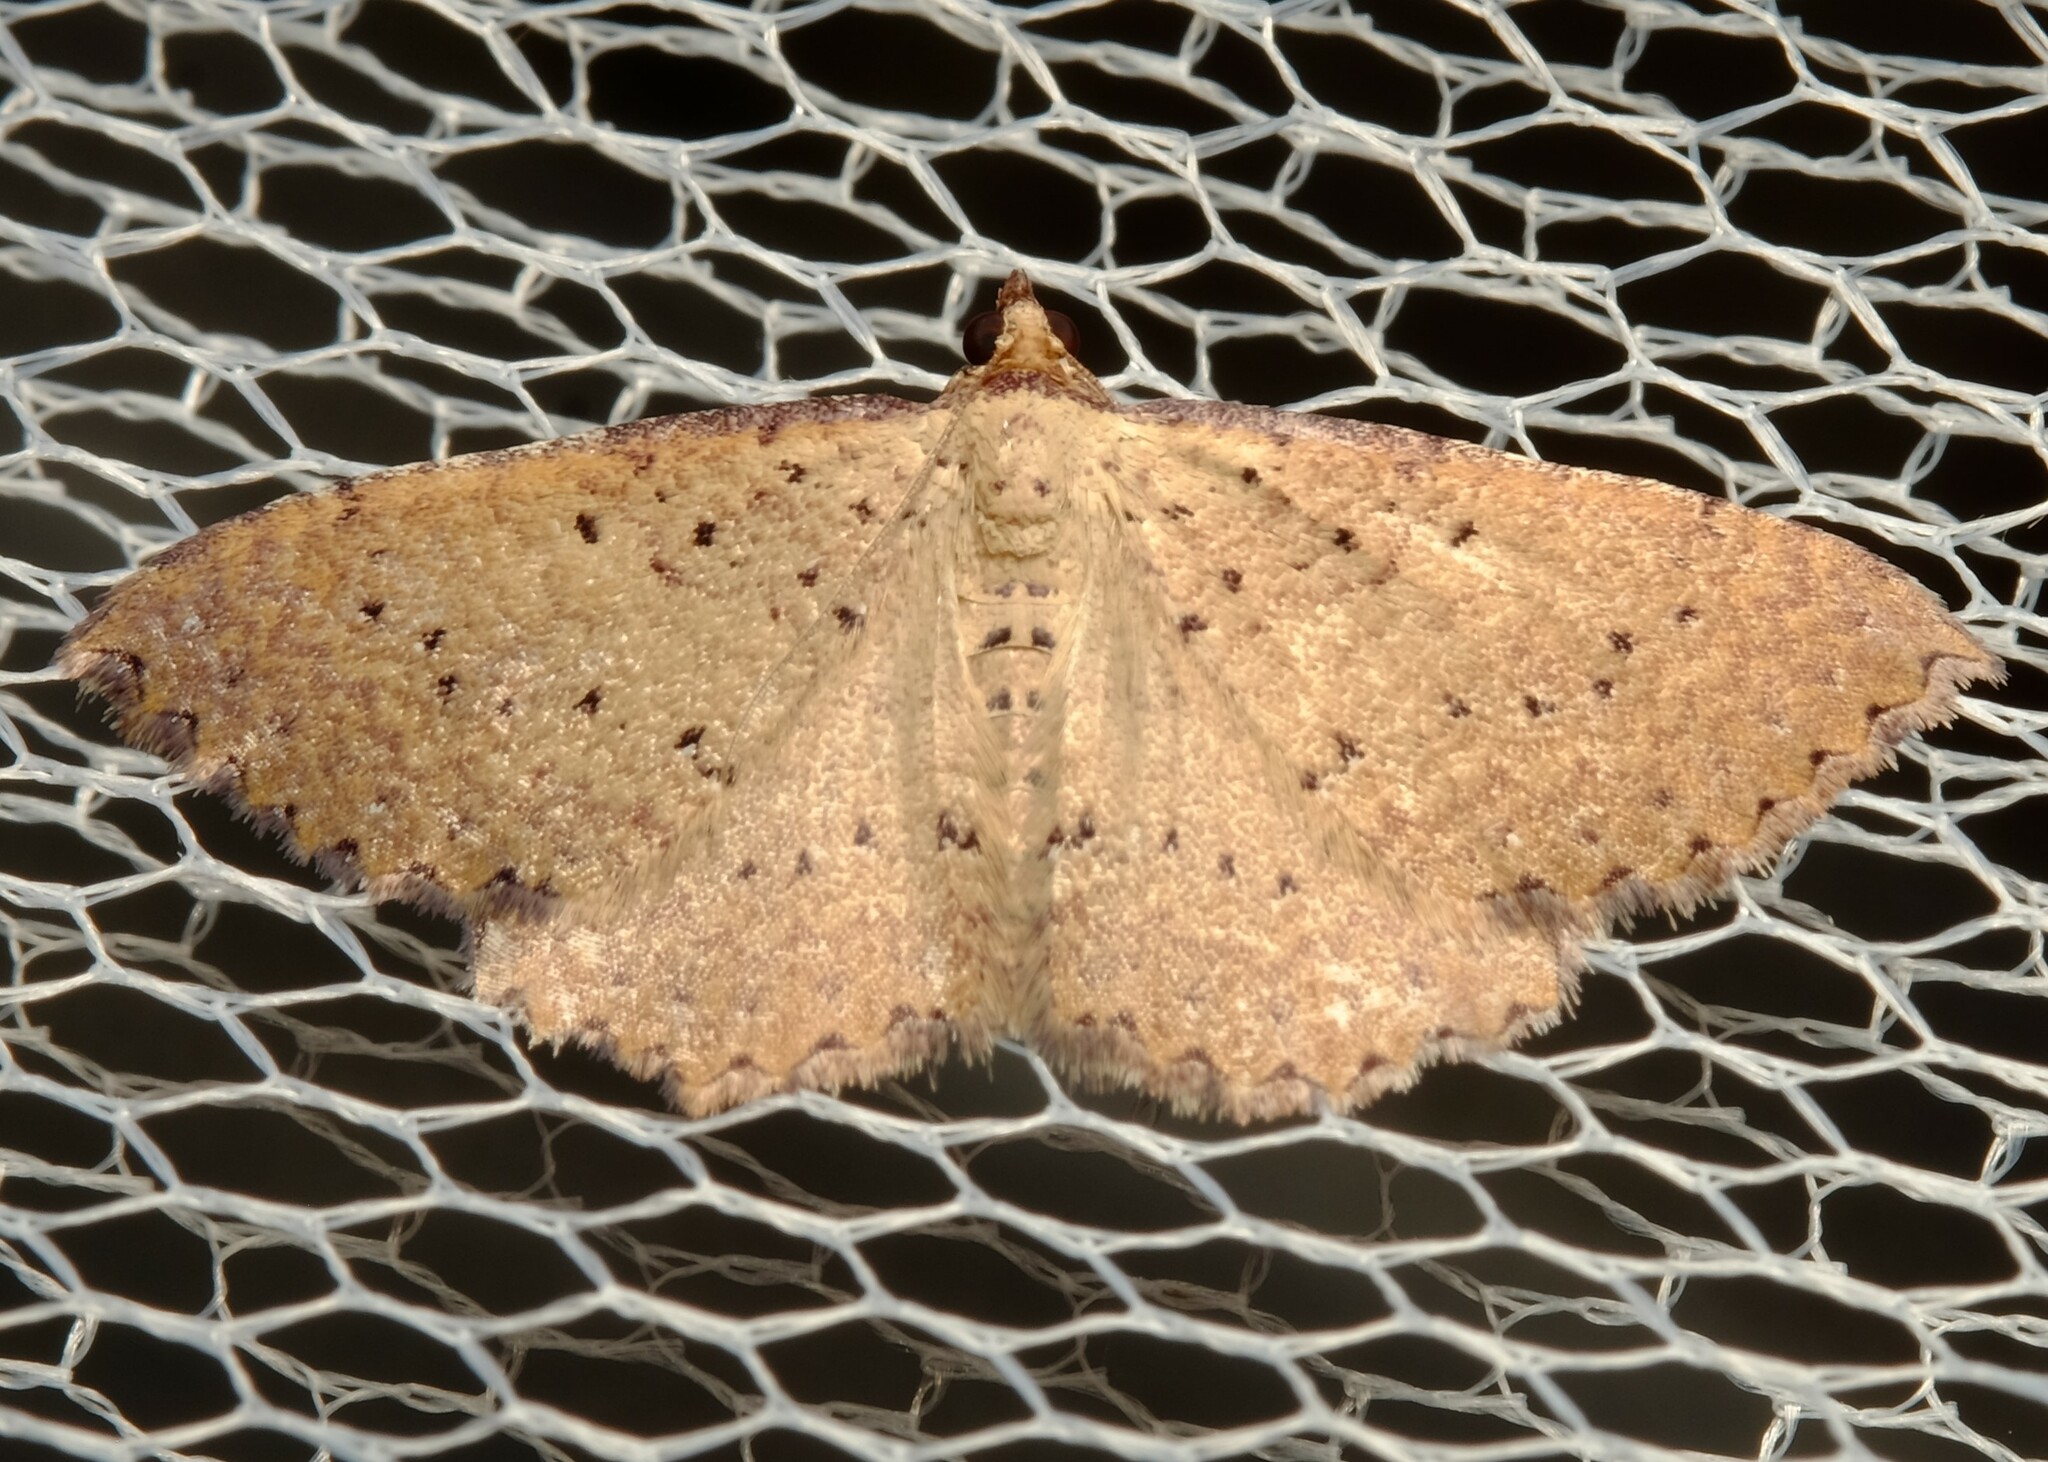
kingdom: Animalia
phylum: Arthropoda
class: Insecta
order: Lepidoptera
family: Geometridae
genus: Chrysolarentia
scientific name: Chrysolarentia microcyma
